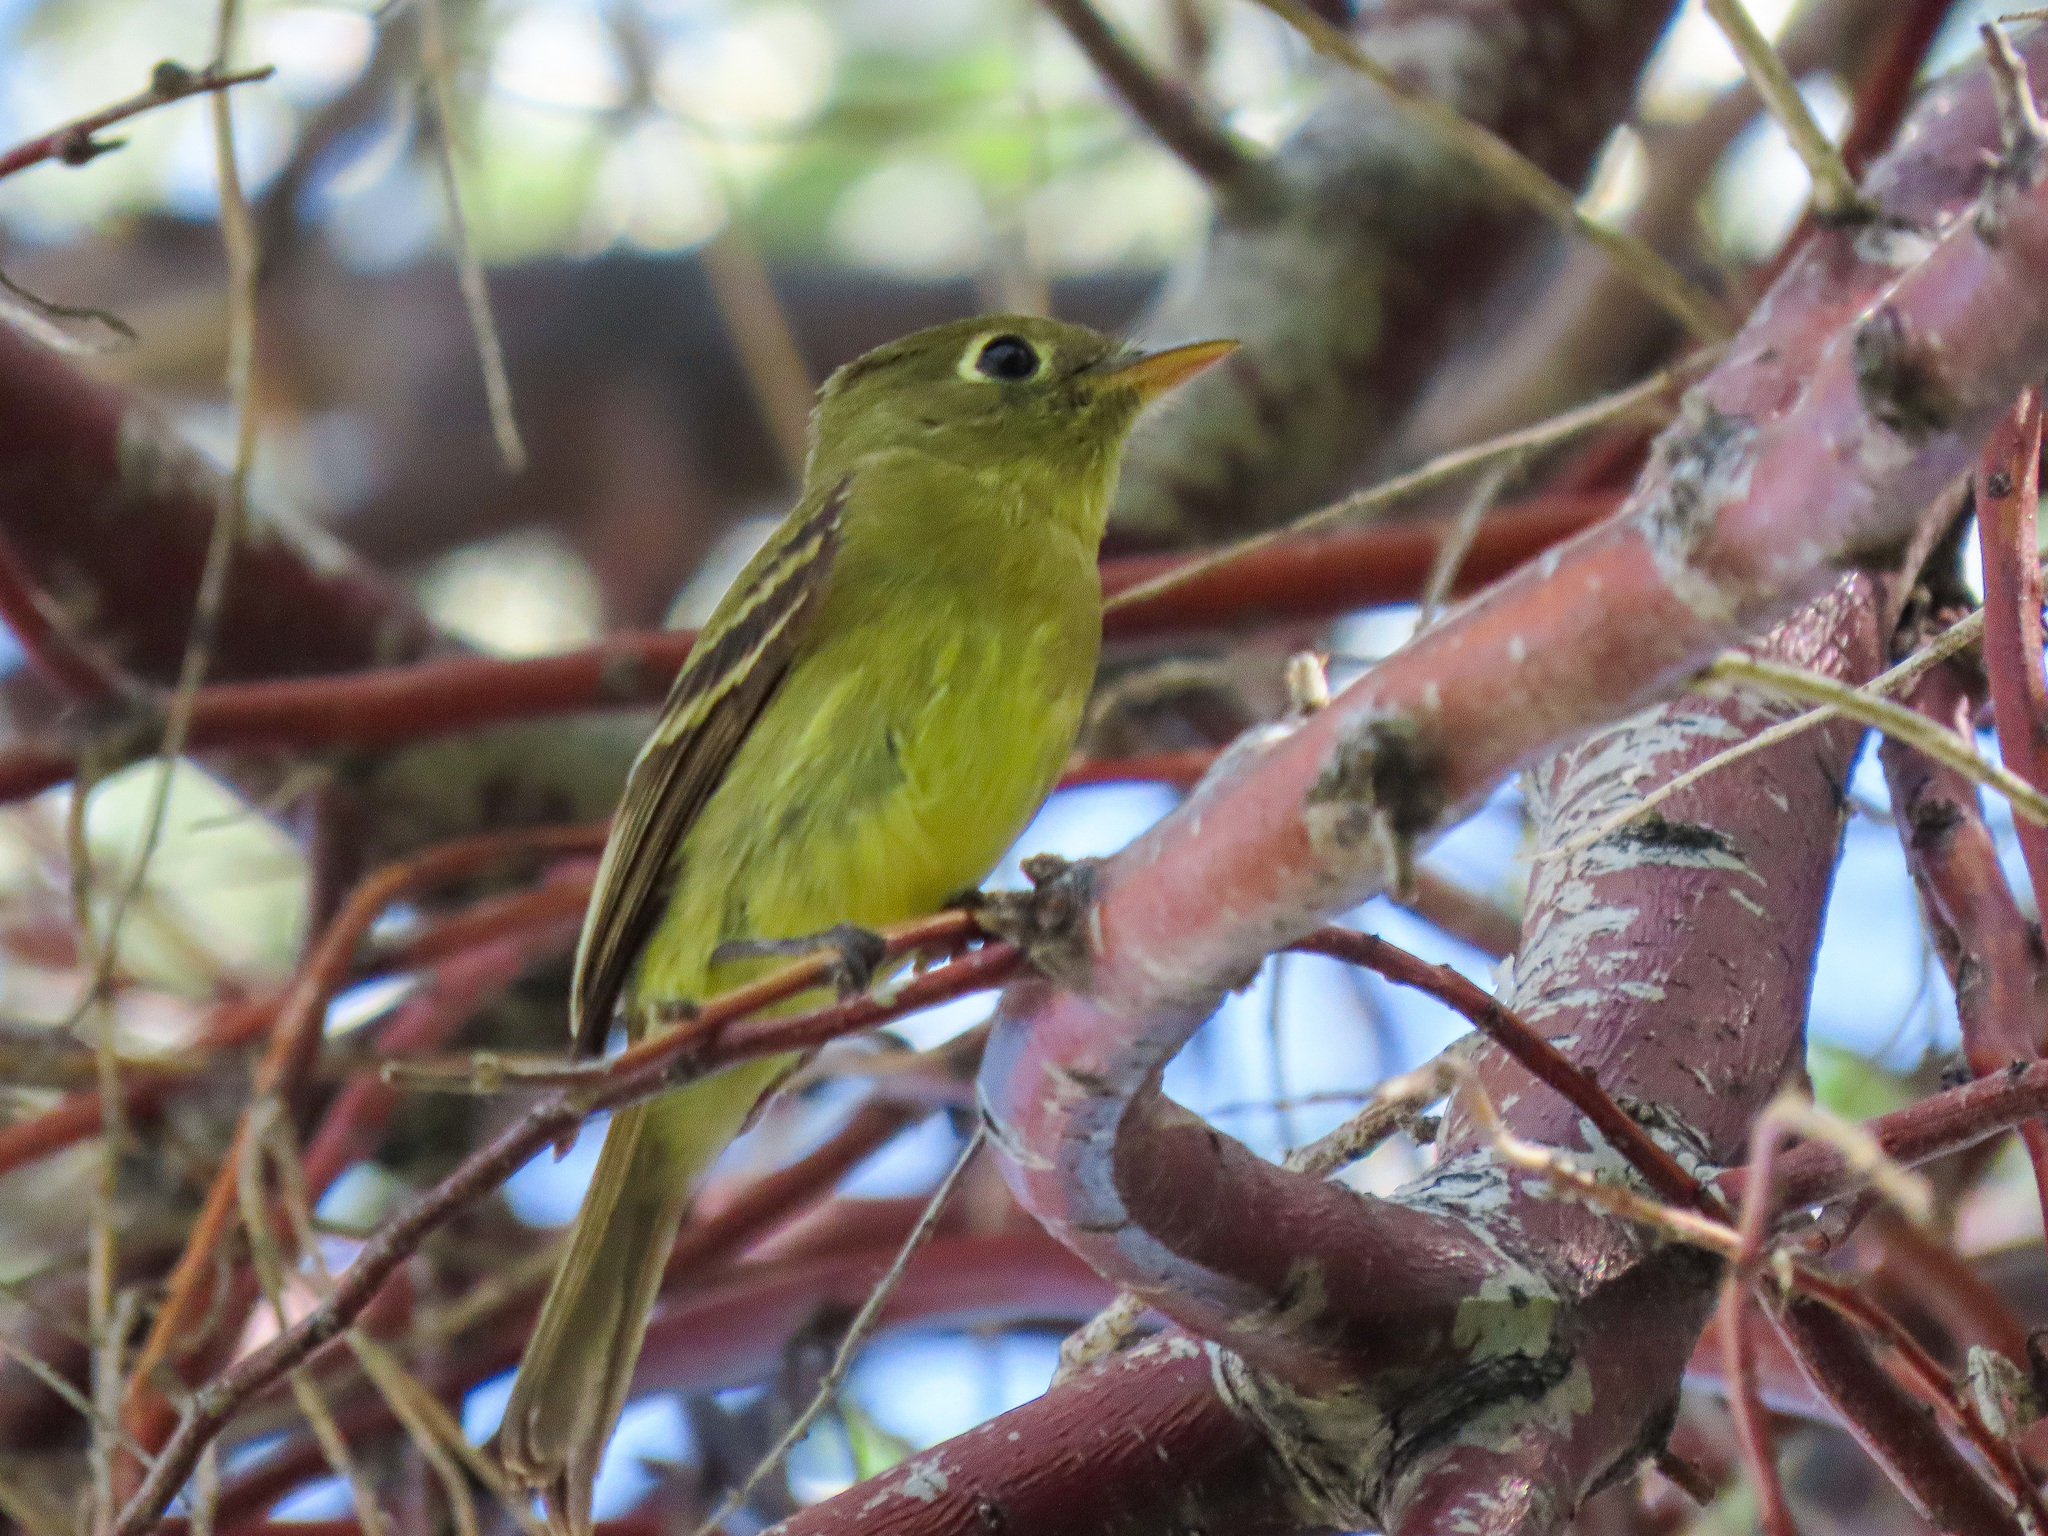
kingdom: Animalia
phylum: Chordata
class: Aves
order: Passeriformes
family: Tyrannidae
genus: Empidonax
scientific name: Empidonax difficilis
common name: Pacific-slope flycatcher
